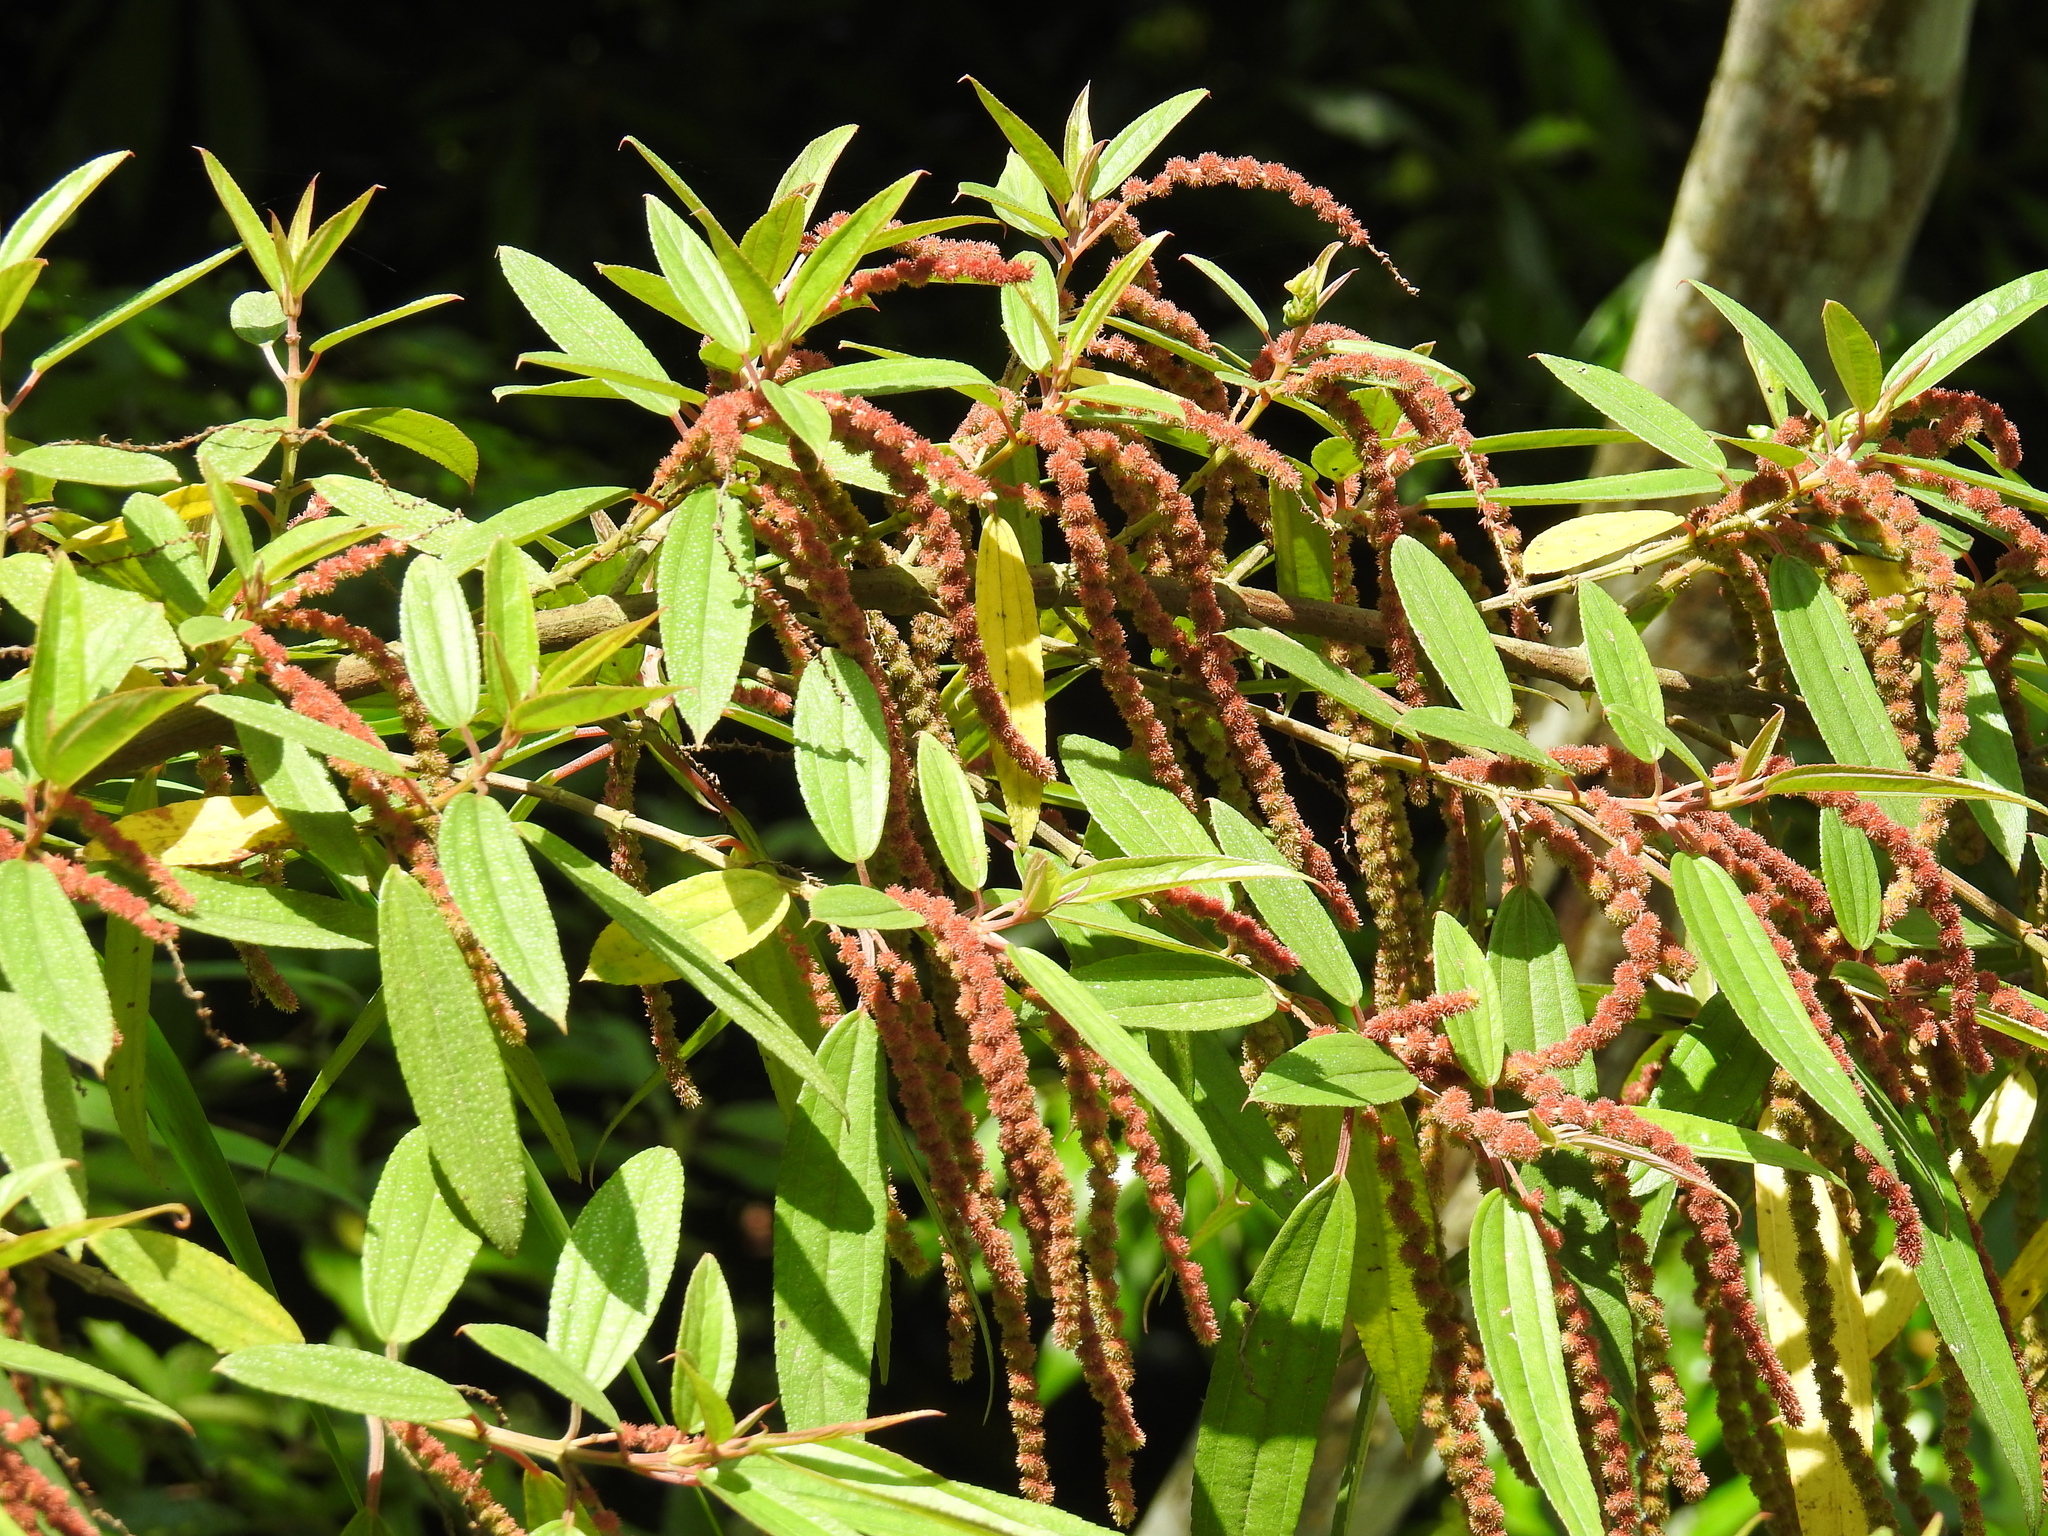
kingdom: Plantae
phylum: Tracheophyta
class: Magnoliopsida
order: Rosales
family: Urticaceae
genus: Boehmeria
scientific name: Boehmeria densiflora
